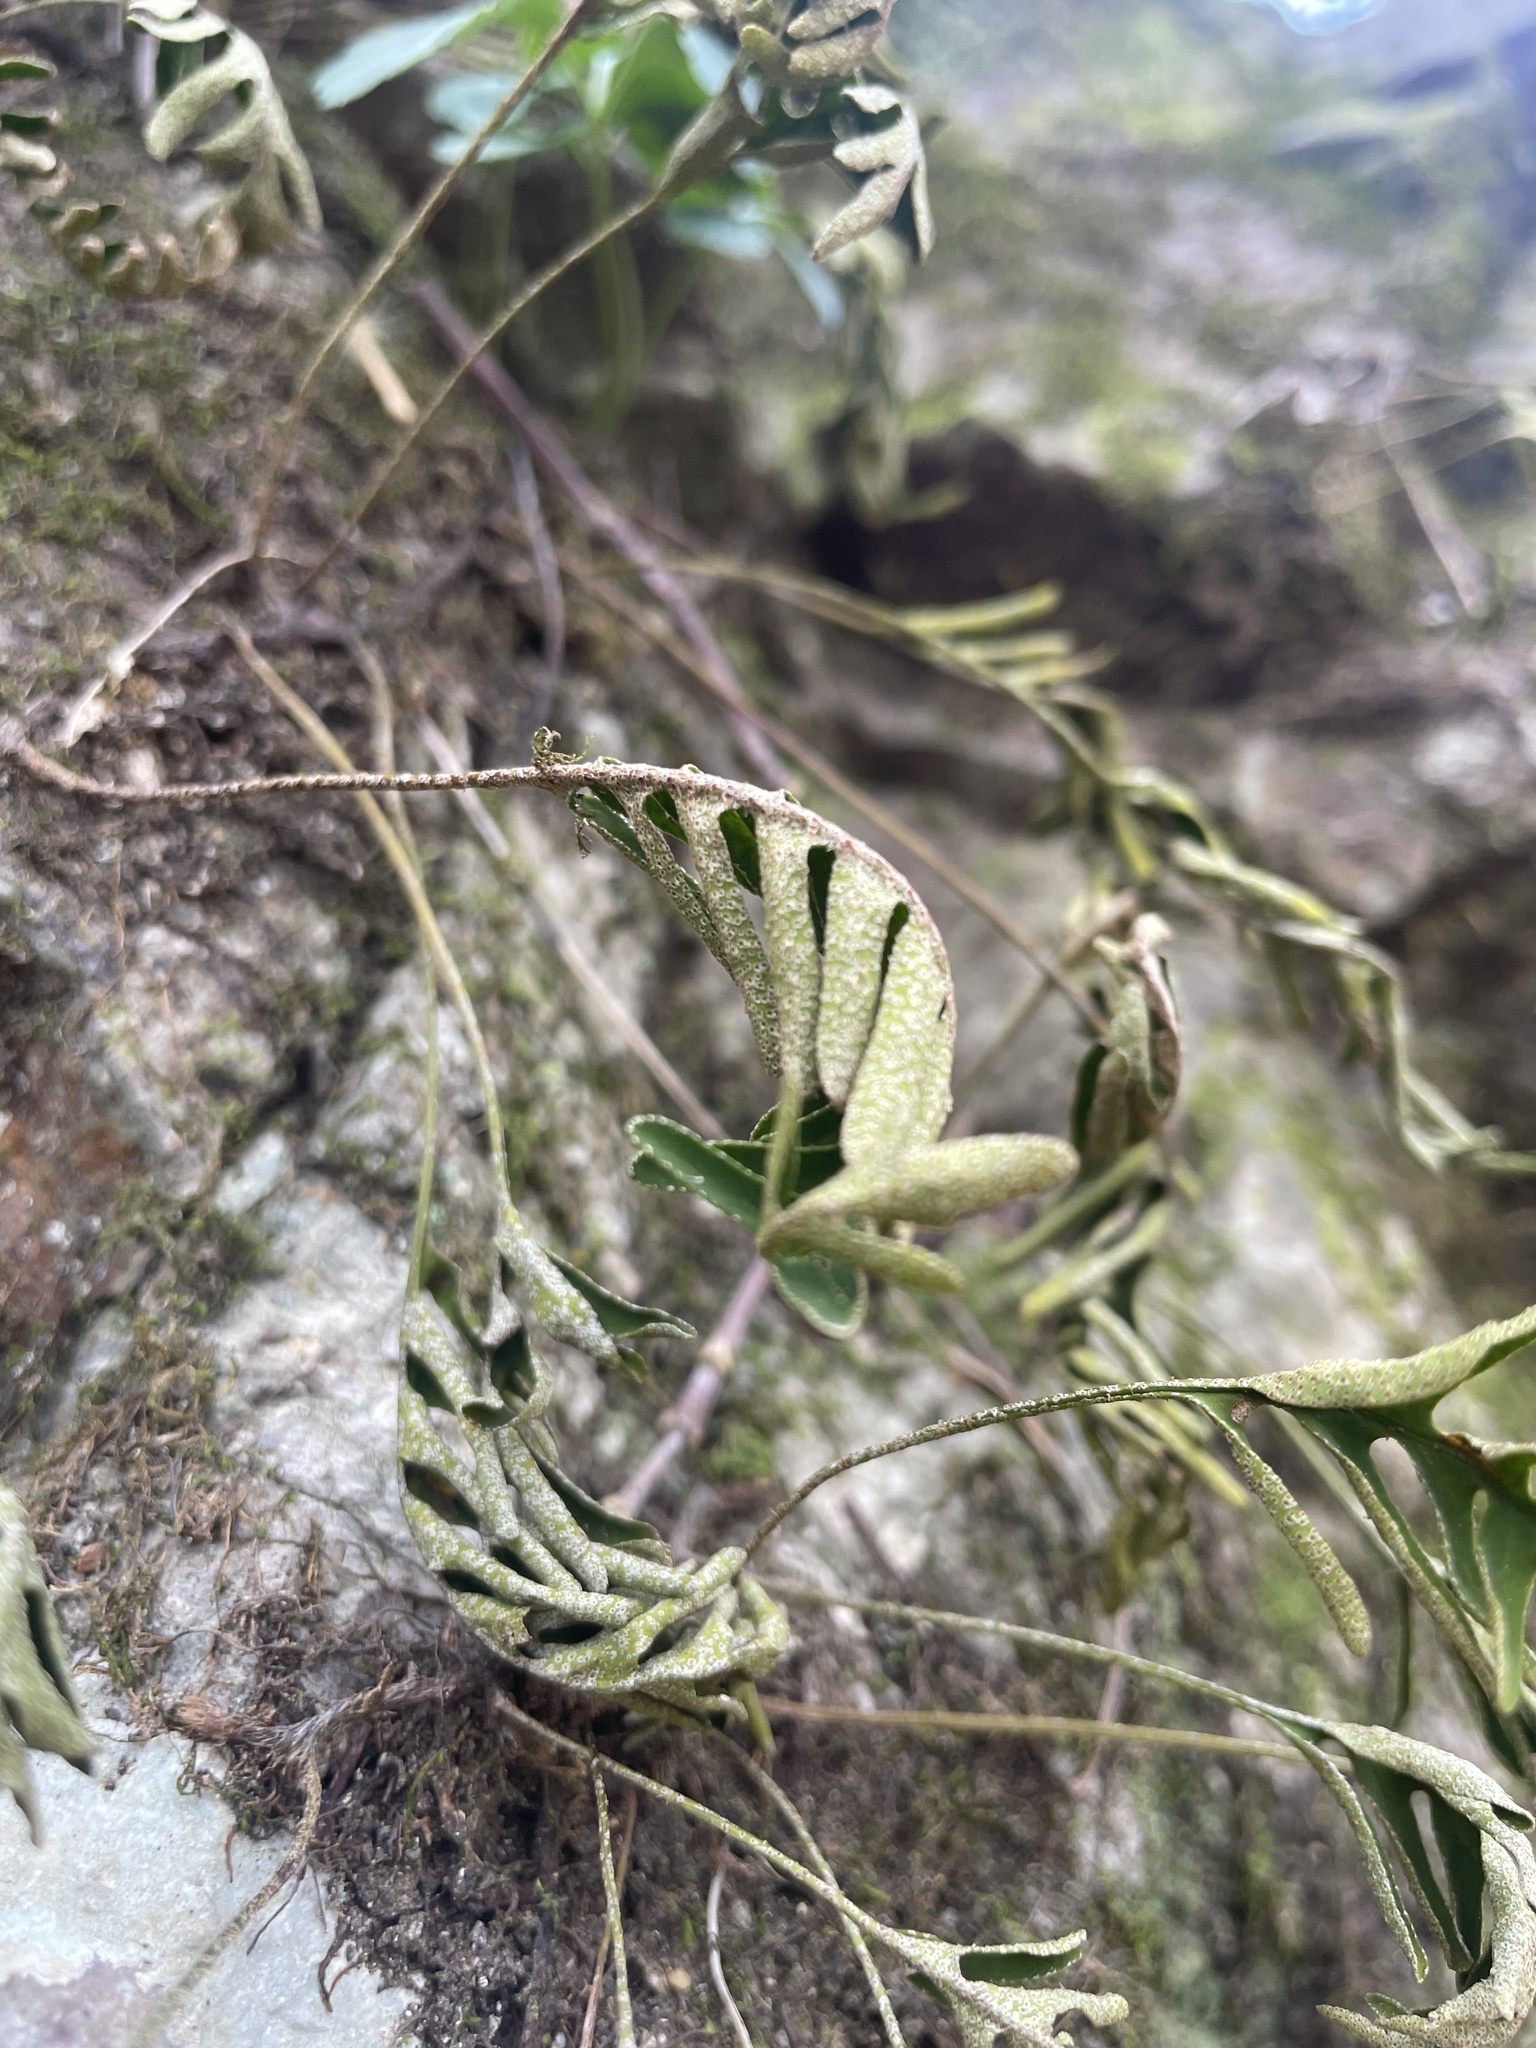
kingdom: Plantae
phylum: Tracheophyta
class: Polypodiopsida
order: Polypodiales
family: Polypodiaceae
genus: Pleopeltis
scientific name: Pleopeltis michauxiana
